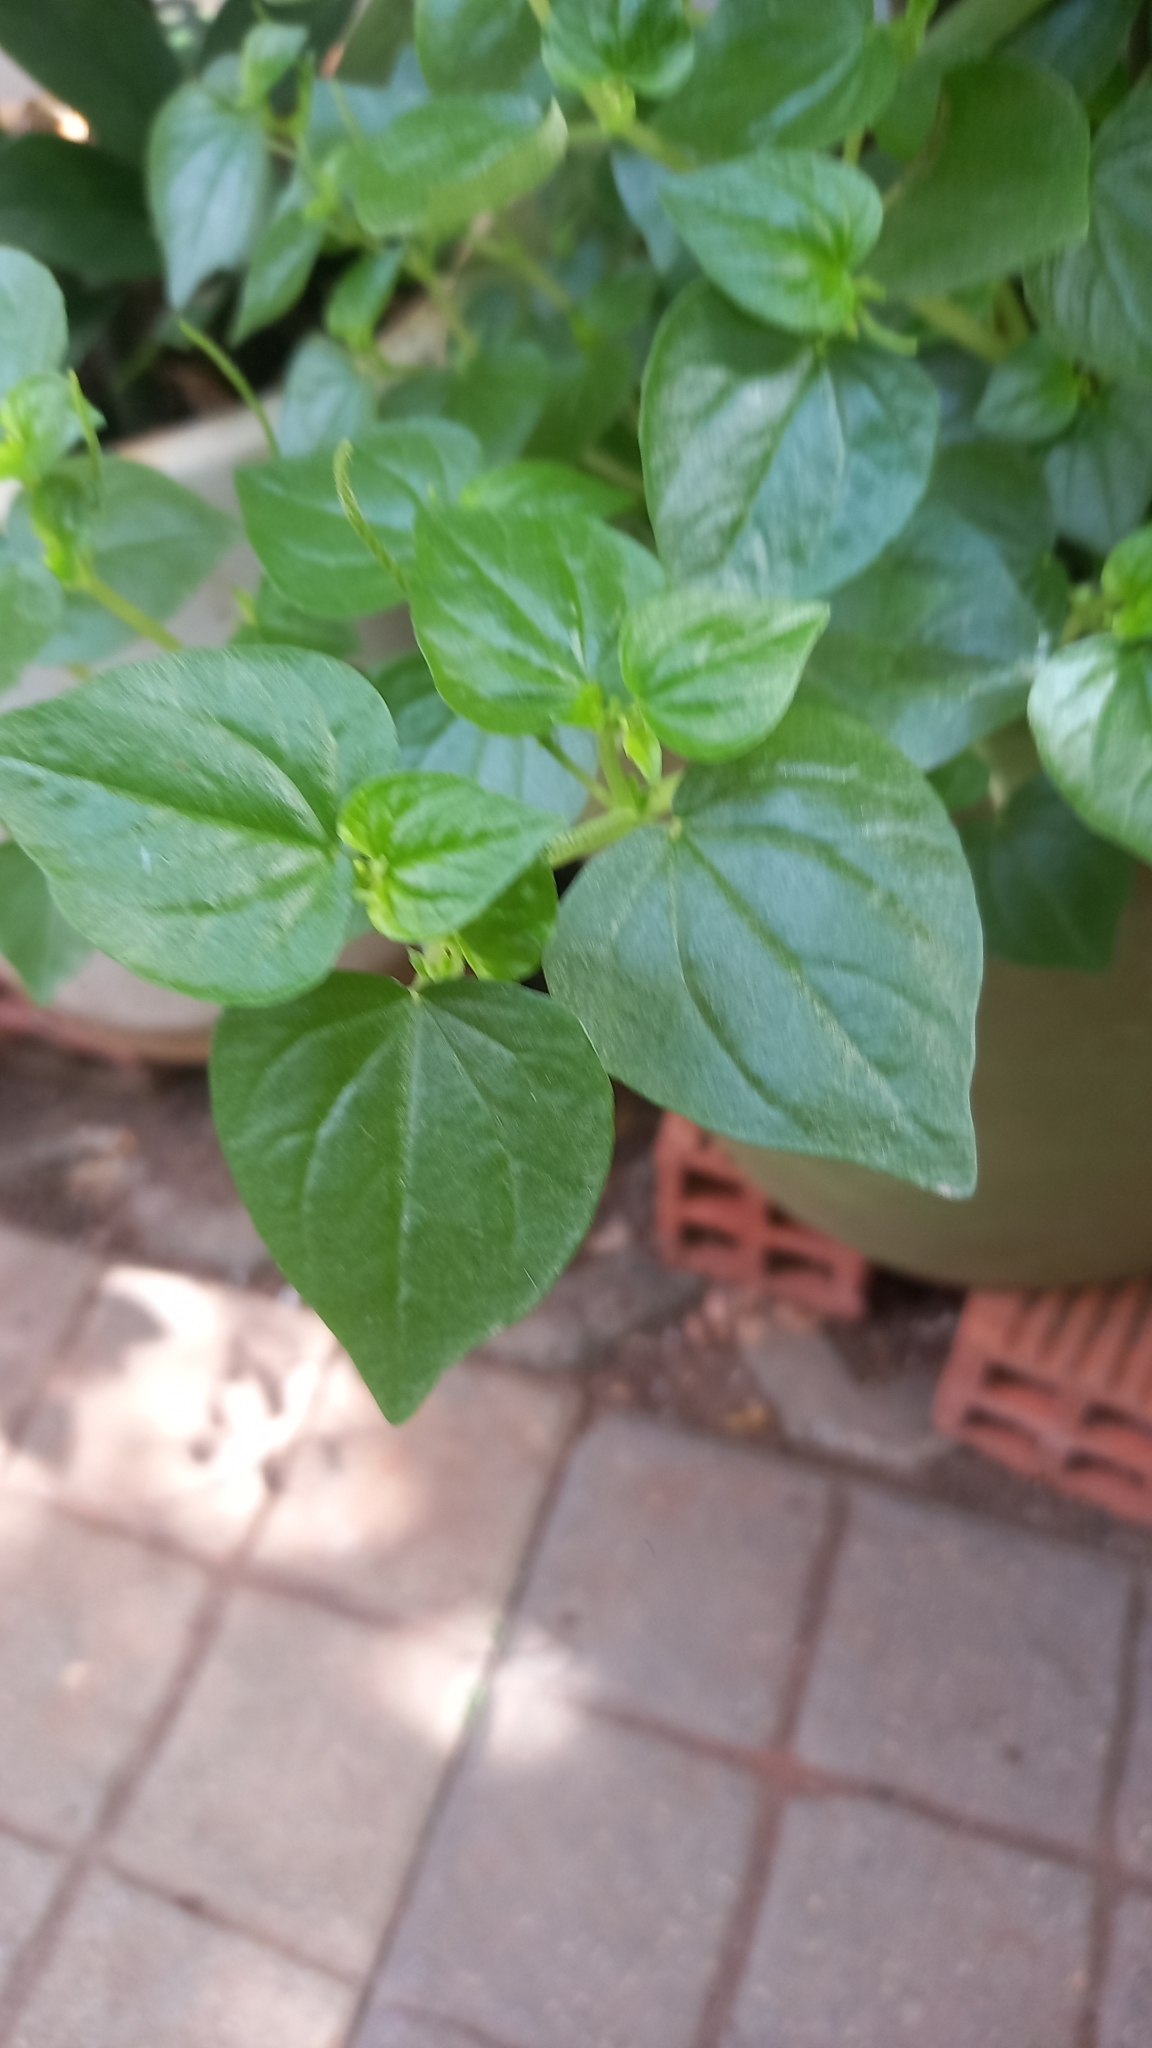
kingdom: Plantae
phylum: Tracheophyta
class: Magnoliopsida
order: Piperales
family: Piperaceae
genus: Peperomia
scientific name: Peperomia pellucida
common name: Man to man
